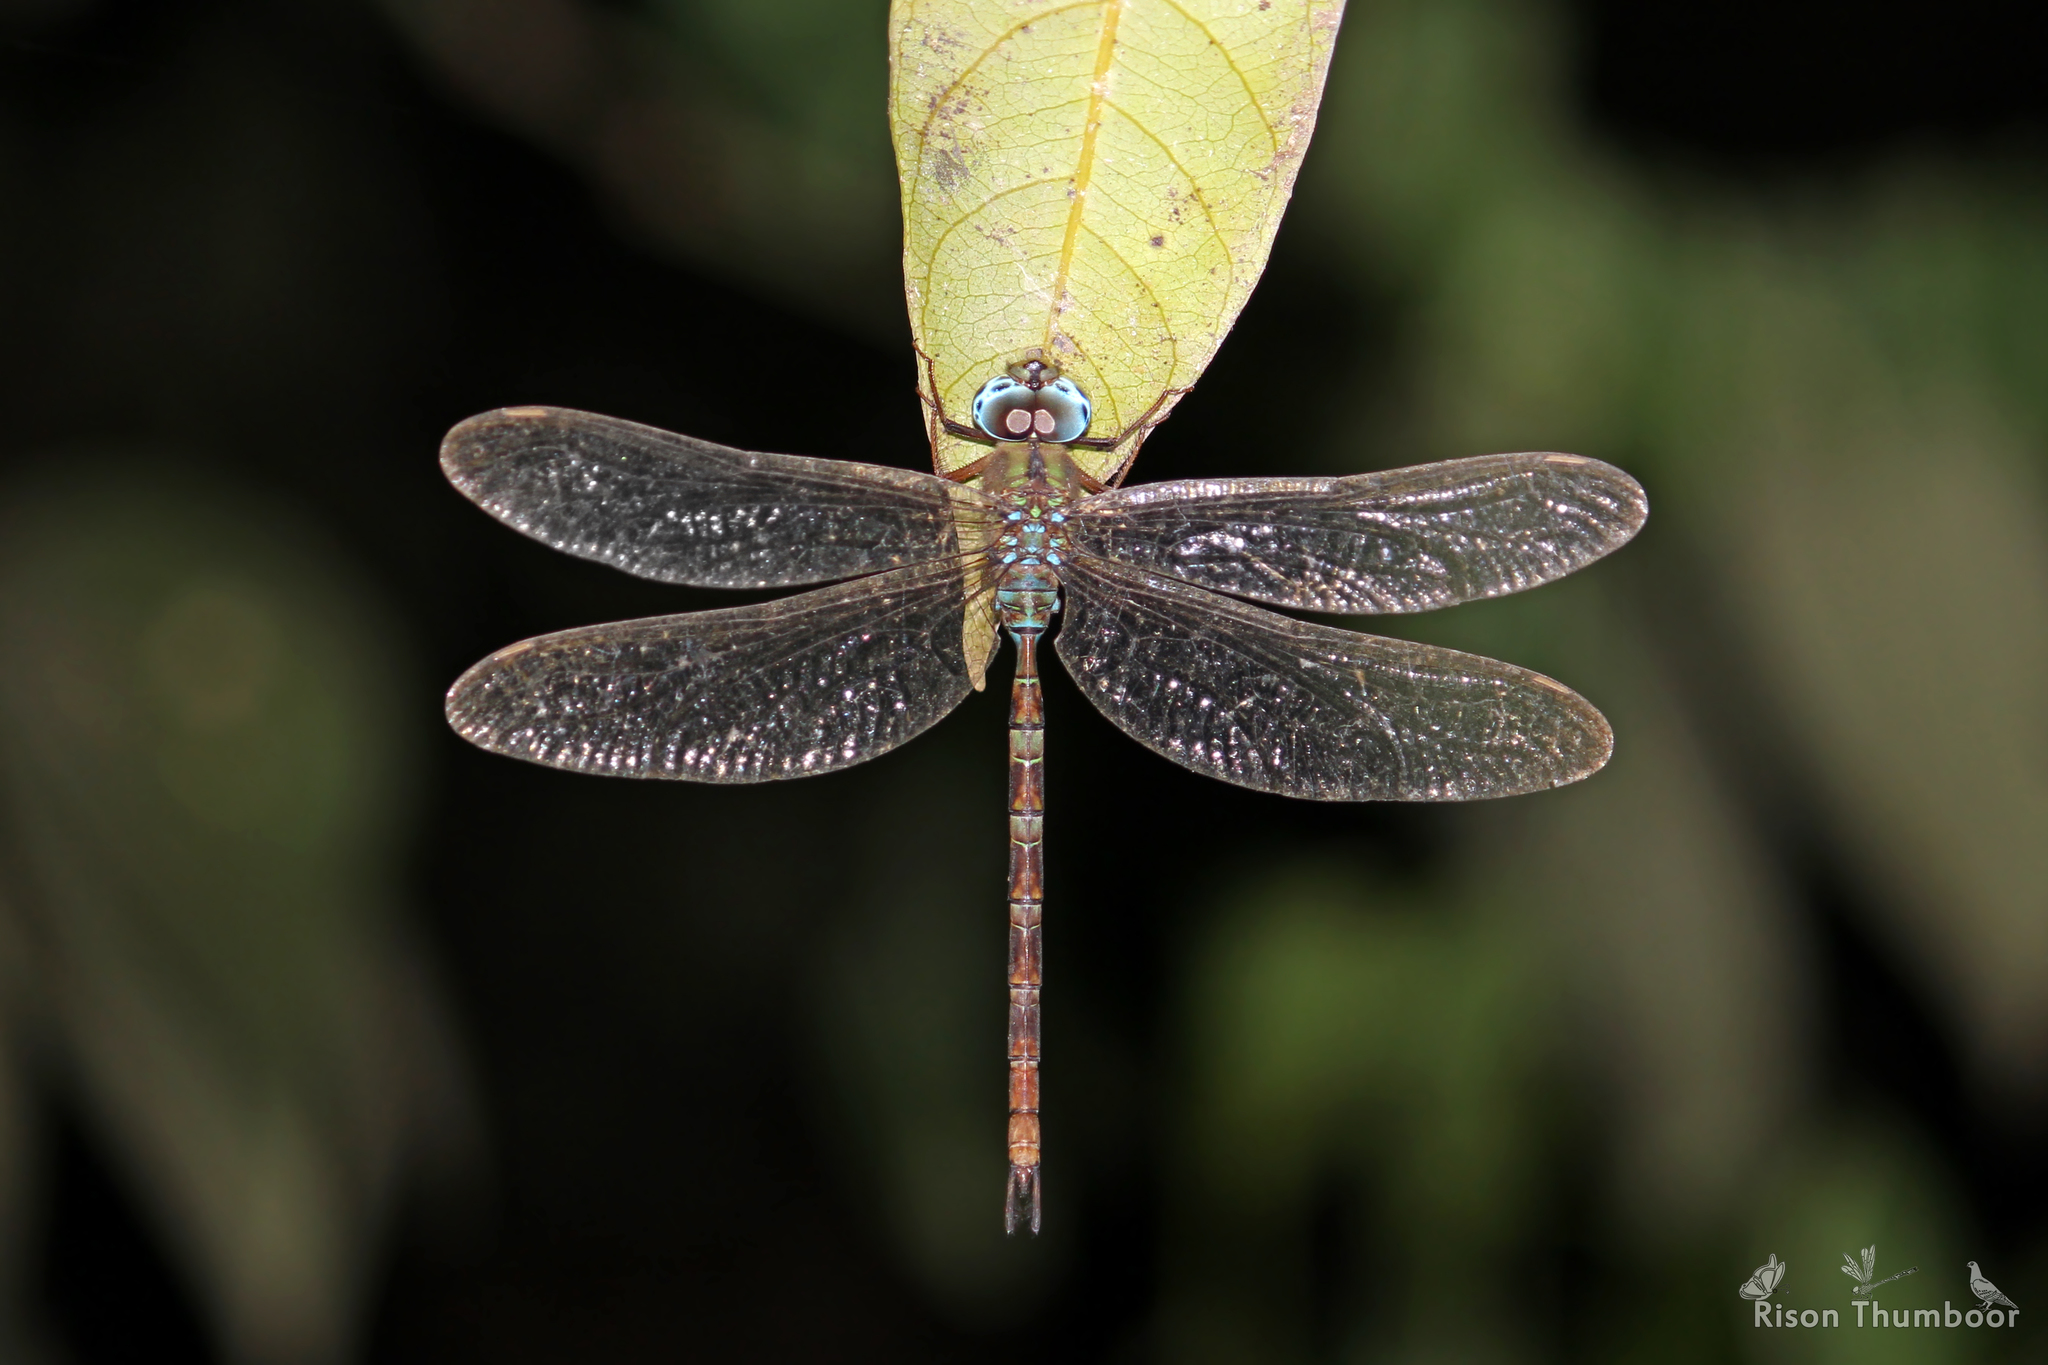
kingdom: Animalia
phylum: Arthropoda
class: Insecta
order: Odonata
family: Aeshnidae
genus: Gynacantha
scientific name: Gynacantha dravida
